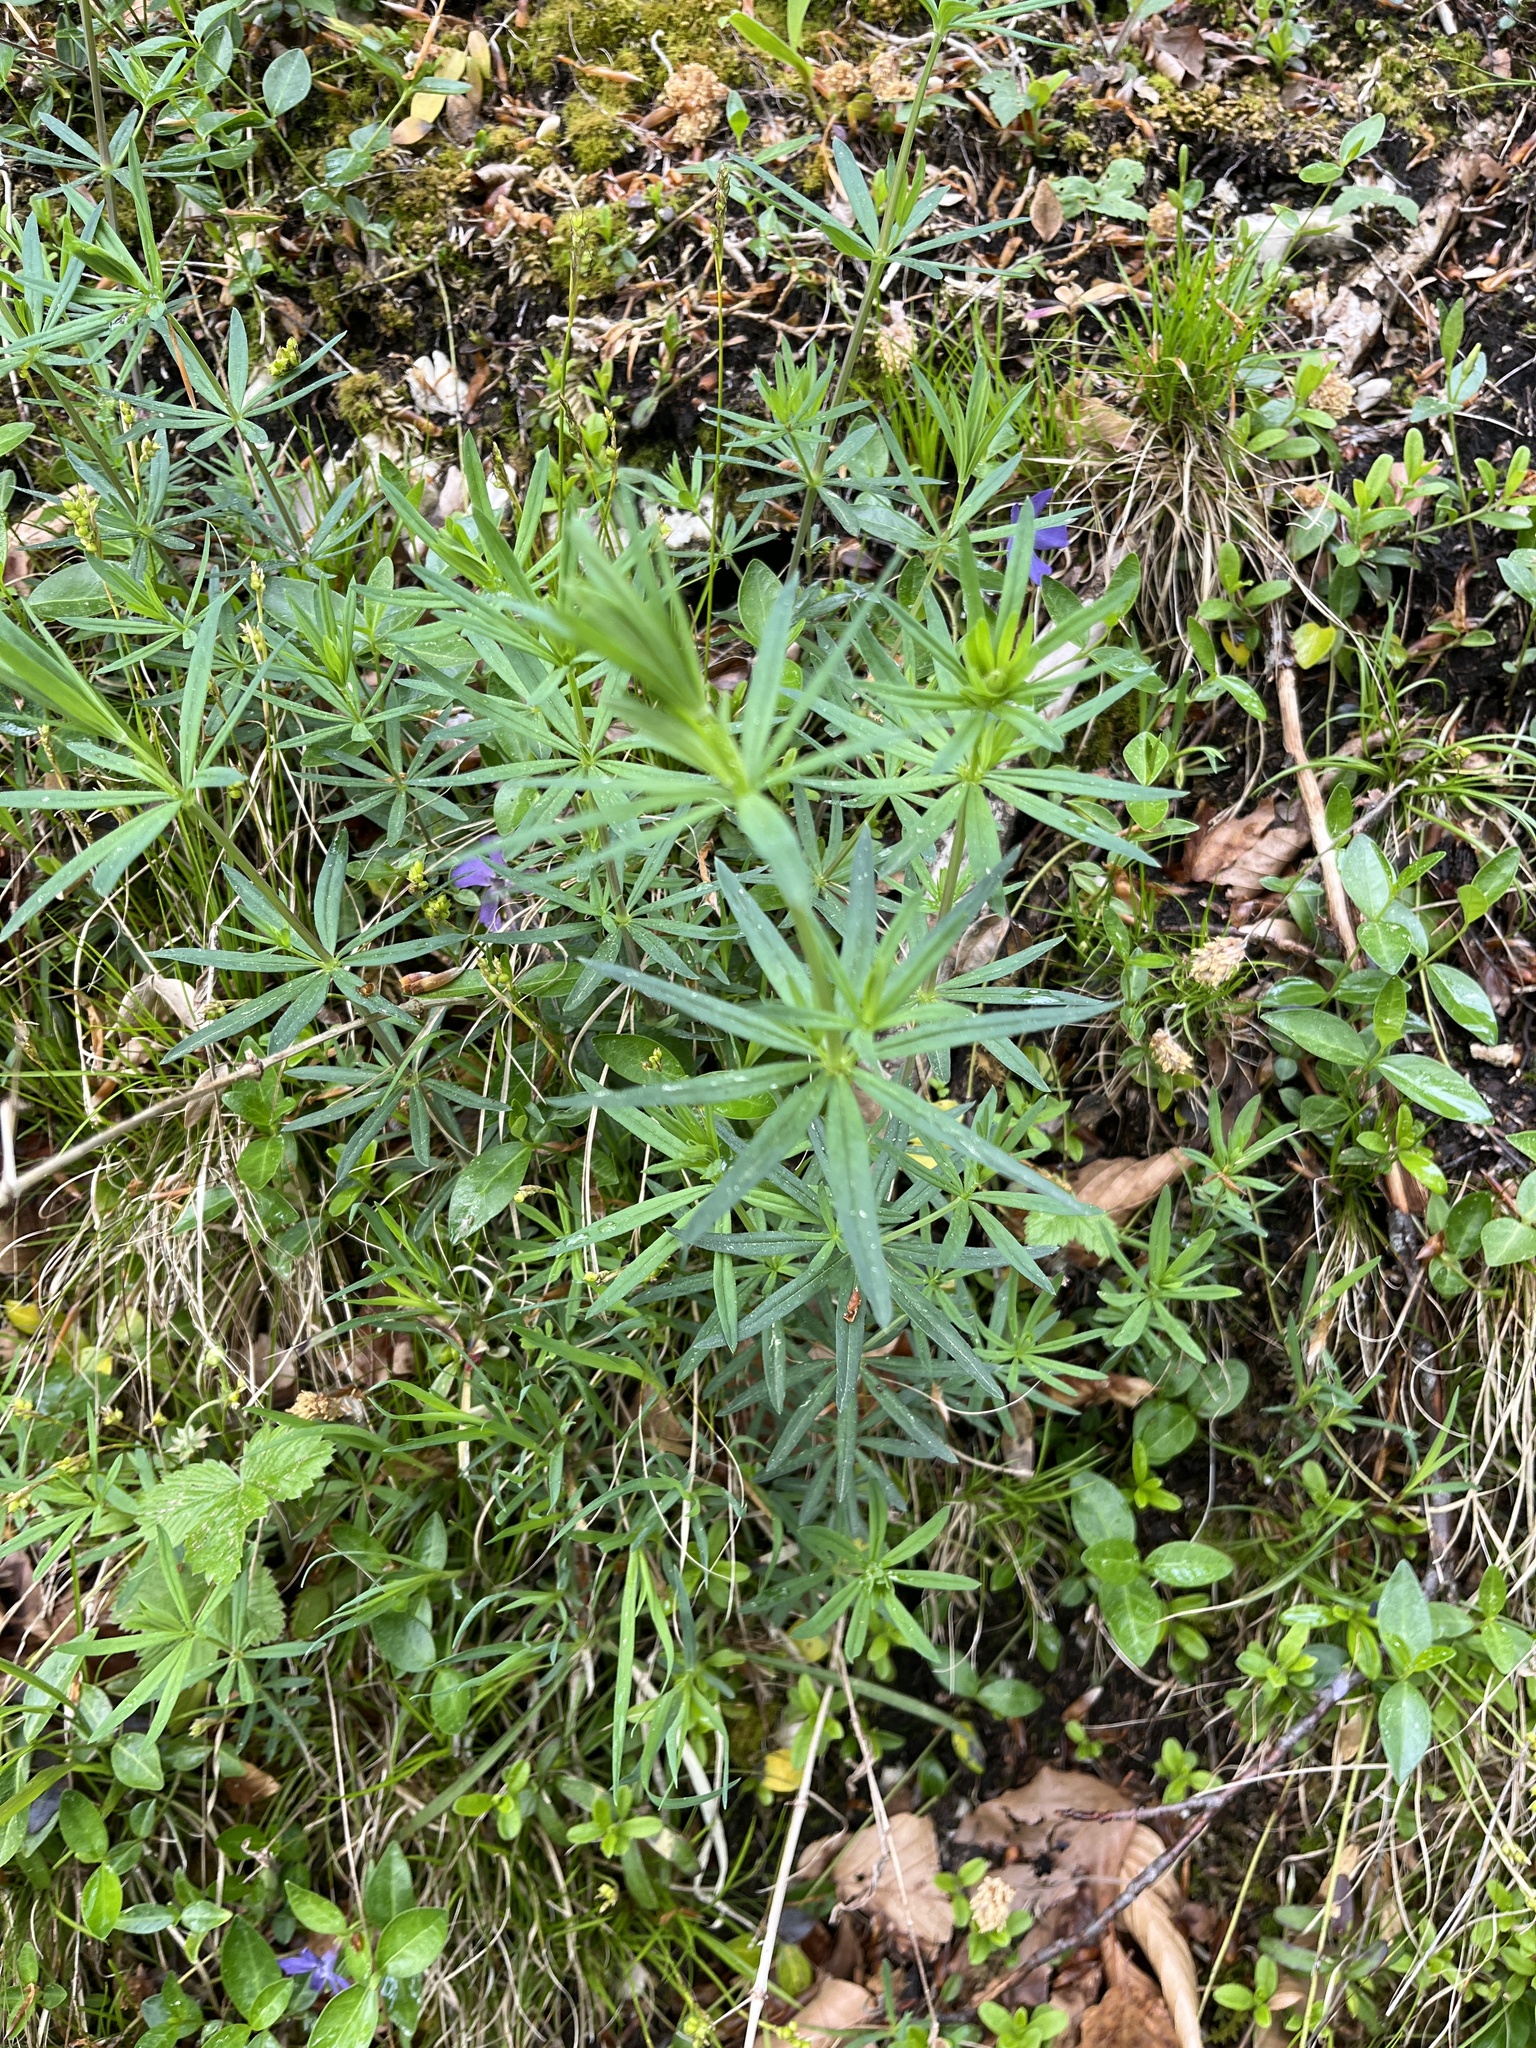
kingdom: Plantae
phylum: Tracheophyta
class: Magnoliopsida
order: Ranunculales
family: Ranunculaceae
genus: Helleborus
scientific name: Helleborus foetidus
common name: Stinking hellebore
